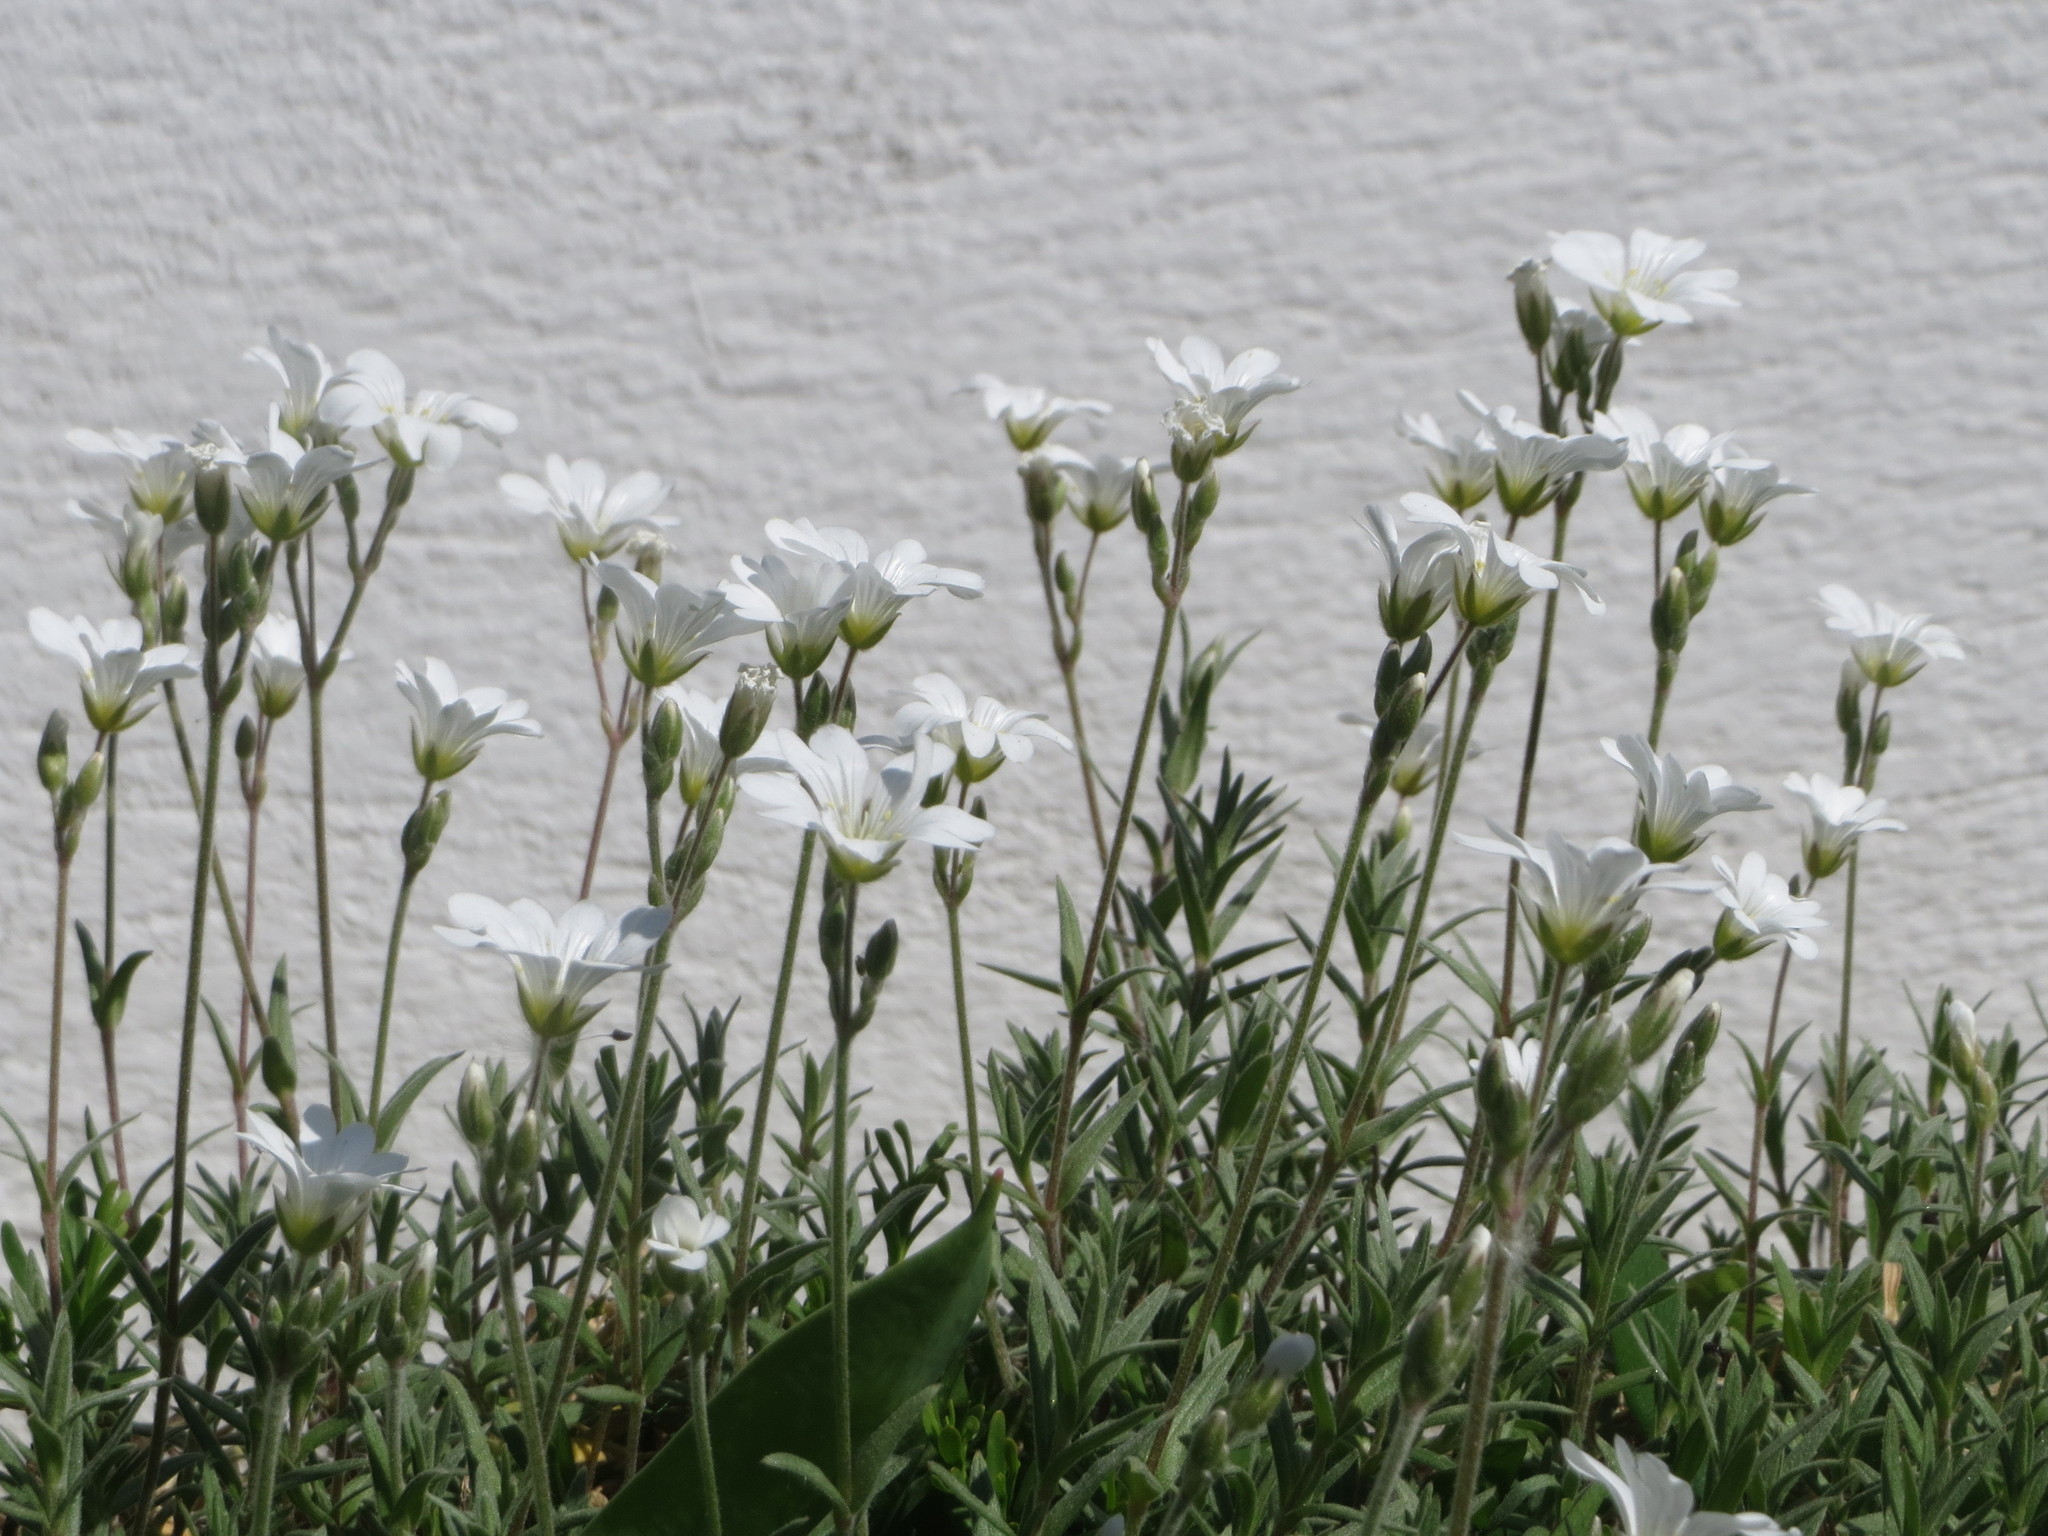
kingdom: Plantae
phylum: Tracheophyta
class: Magnoliopsida
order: Caryophyllales
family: Caryophyllaceae
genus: Cerastium
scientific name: Cerastium arvense
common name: Field mouse-ear
